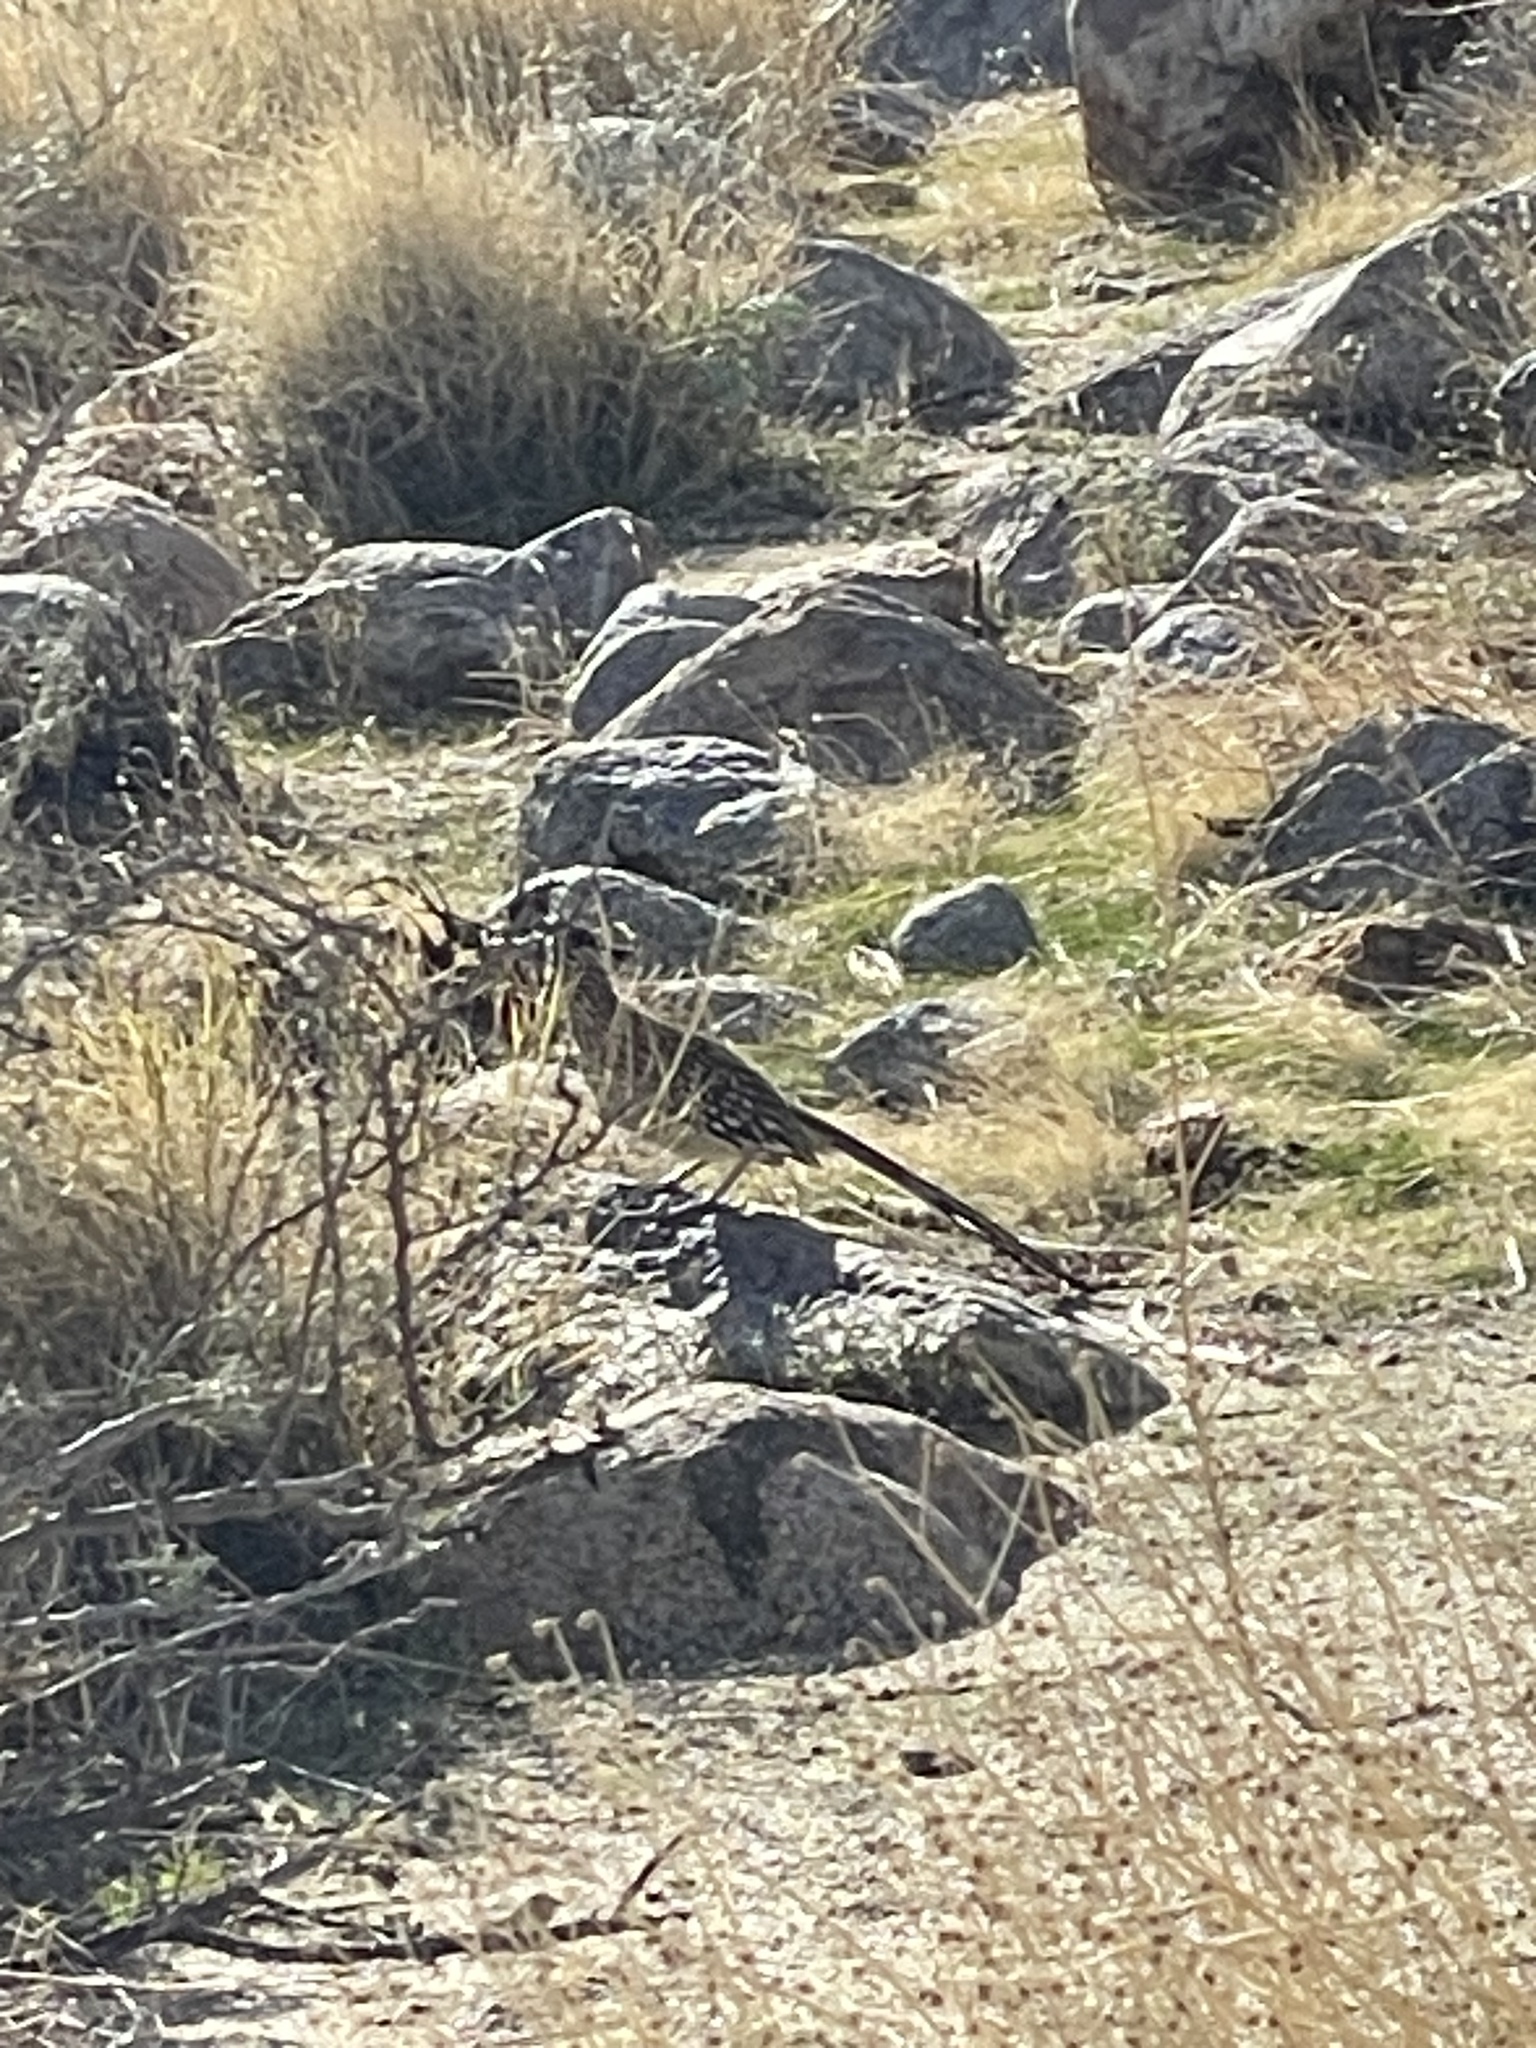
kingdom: Animalia
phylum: Chordata
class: Aves
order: Cuculiformes
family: Cuculidae
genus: Geococcyx
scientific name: Geococcyx californianus
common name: Greater roadrunner
